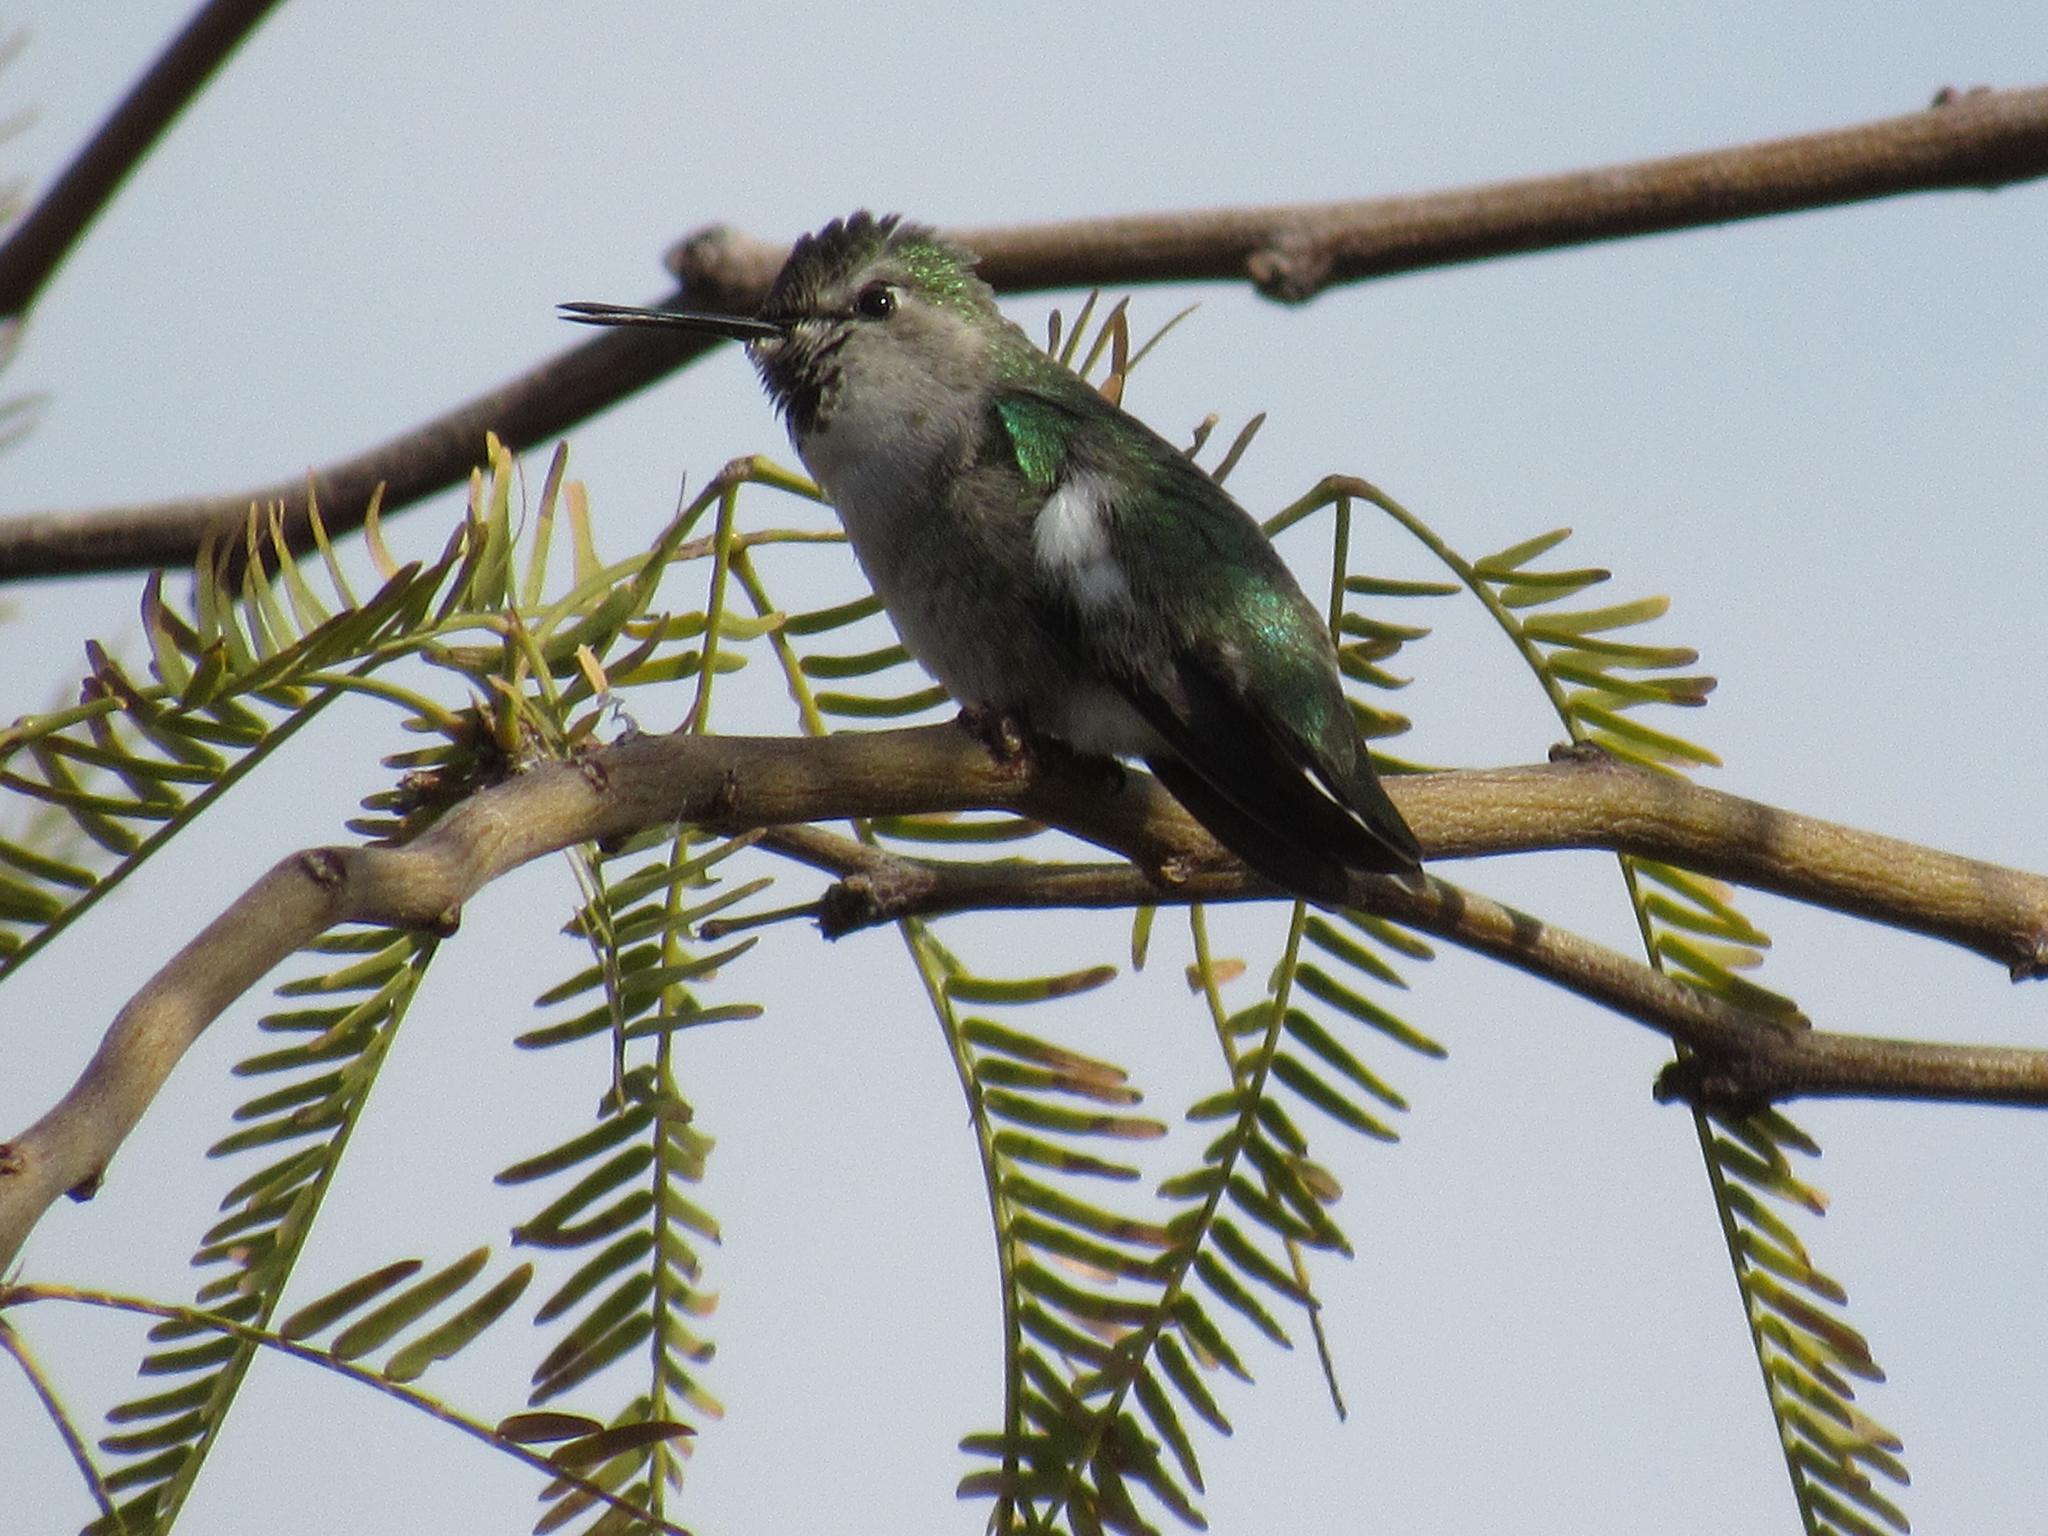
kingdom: Animalia
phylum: Chordata
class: Aves
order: Apodiformes
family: Trochilidae
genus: Calypte
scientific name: Calypte costae
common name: Costa's hummingbird
